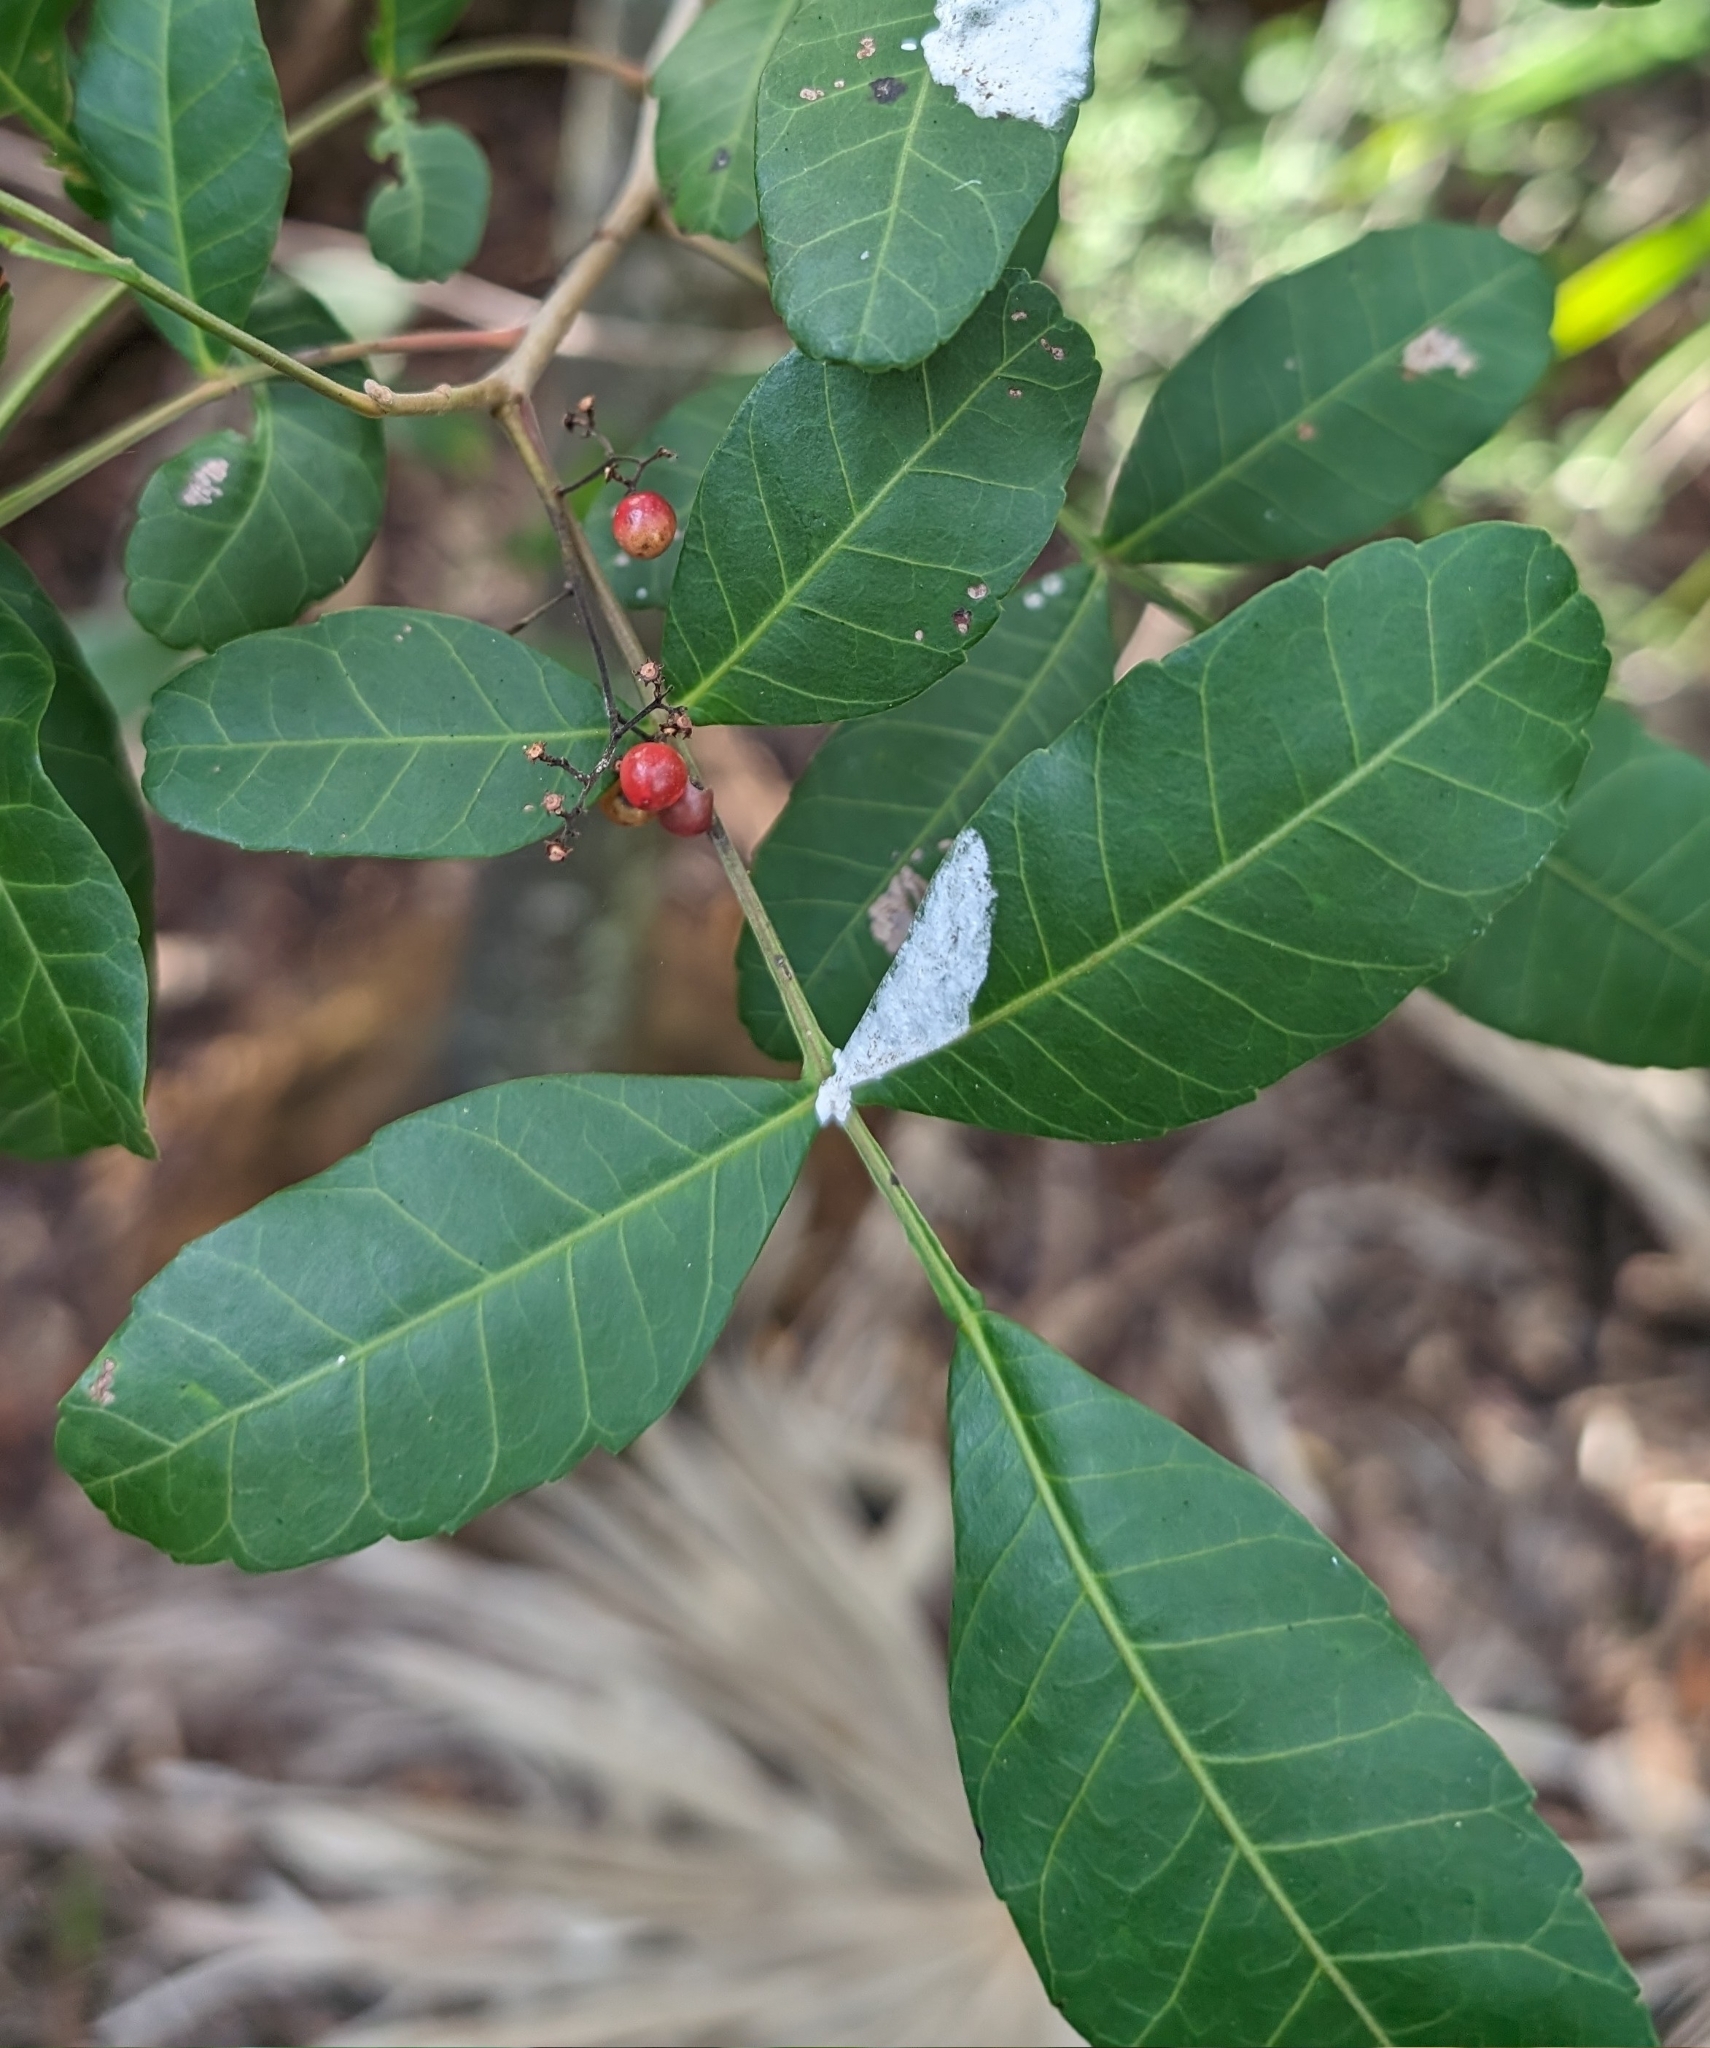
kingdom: Plantae
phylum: Tracheophyta
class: Magnoliopsida
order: Sapindales
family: Anacardiaceae
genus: Schinus
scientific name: Schinus terebinthifolia
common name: Brazilian peppertree
